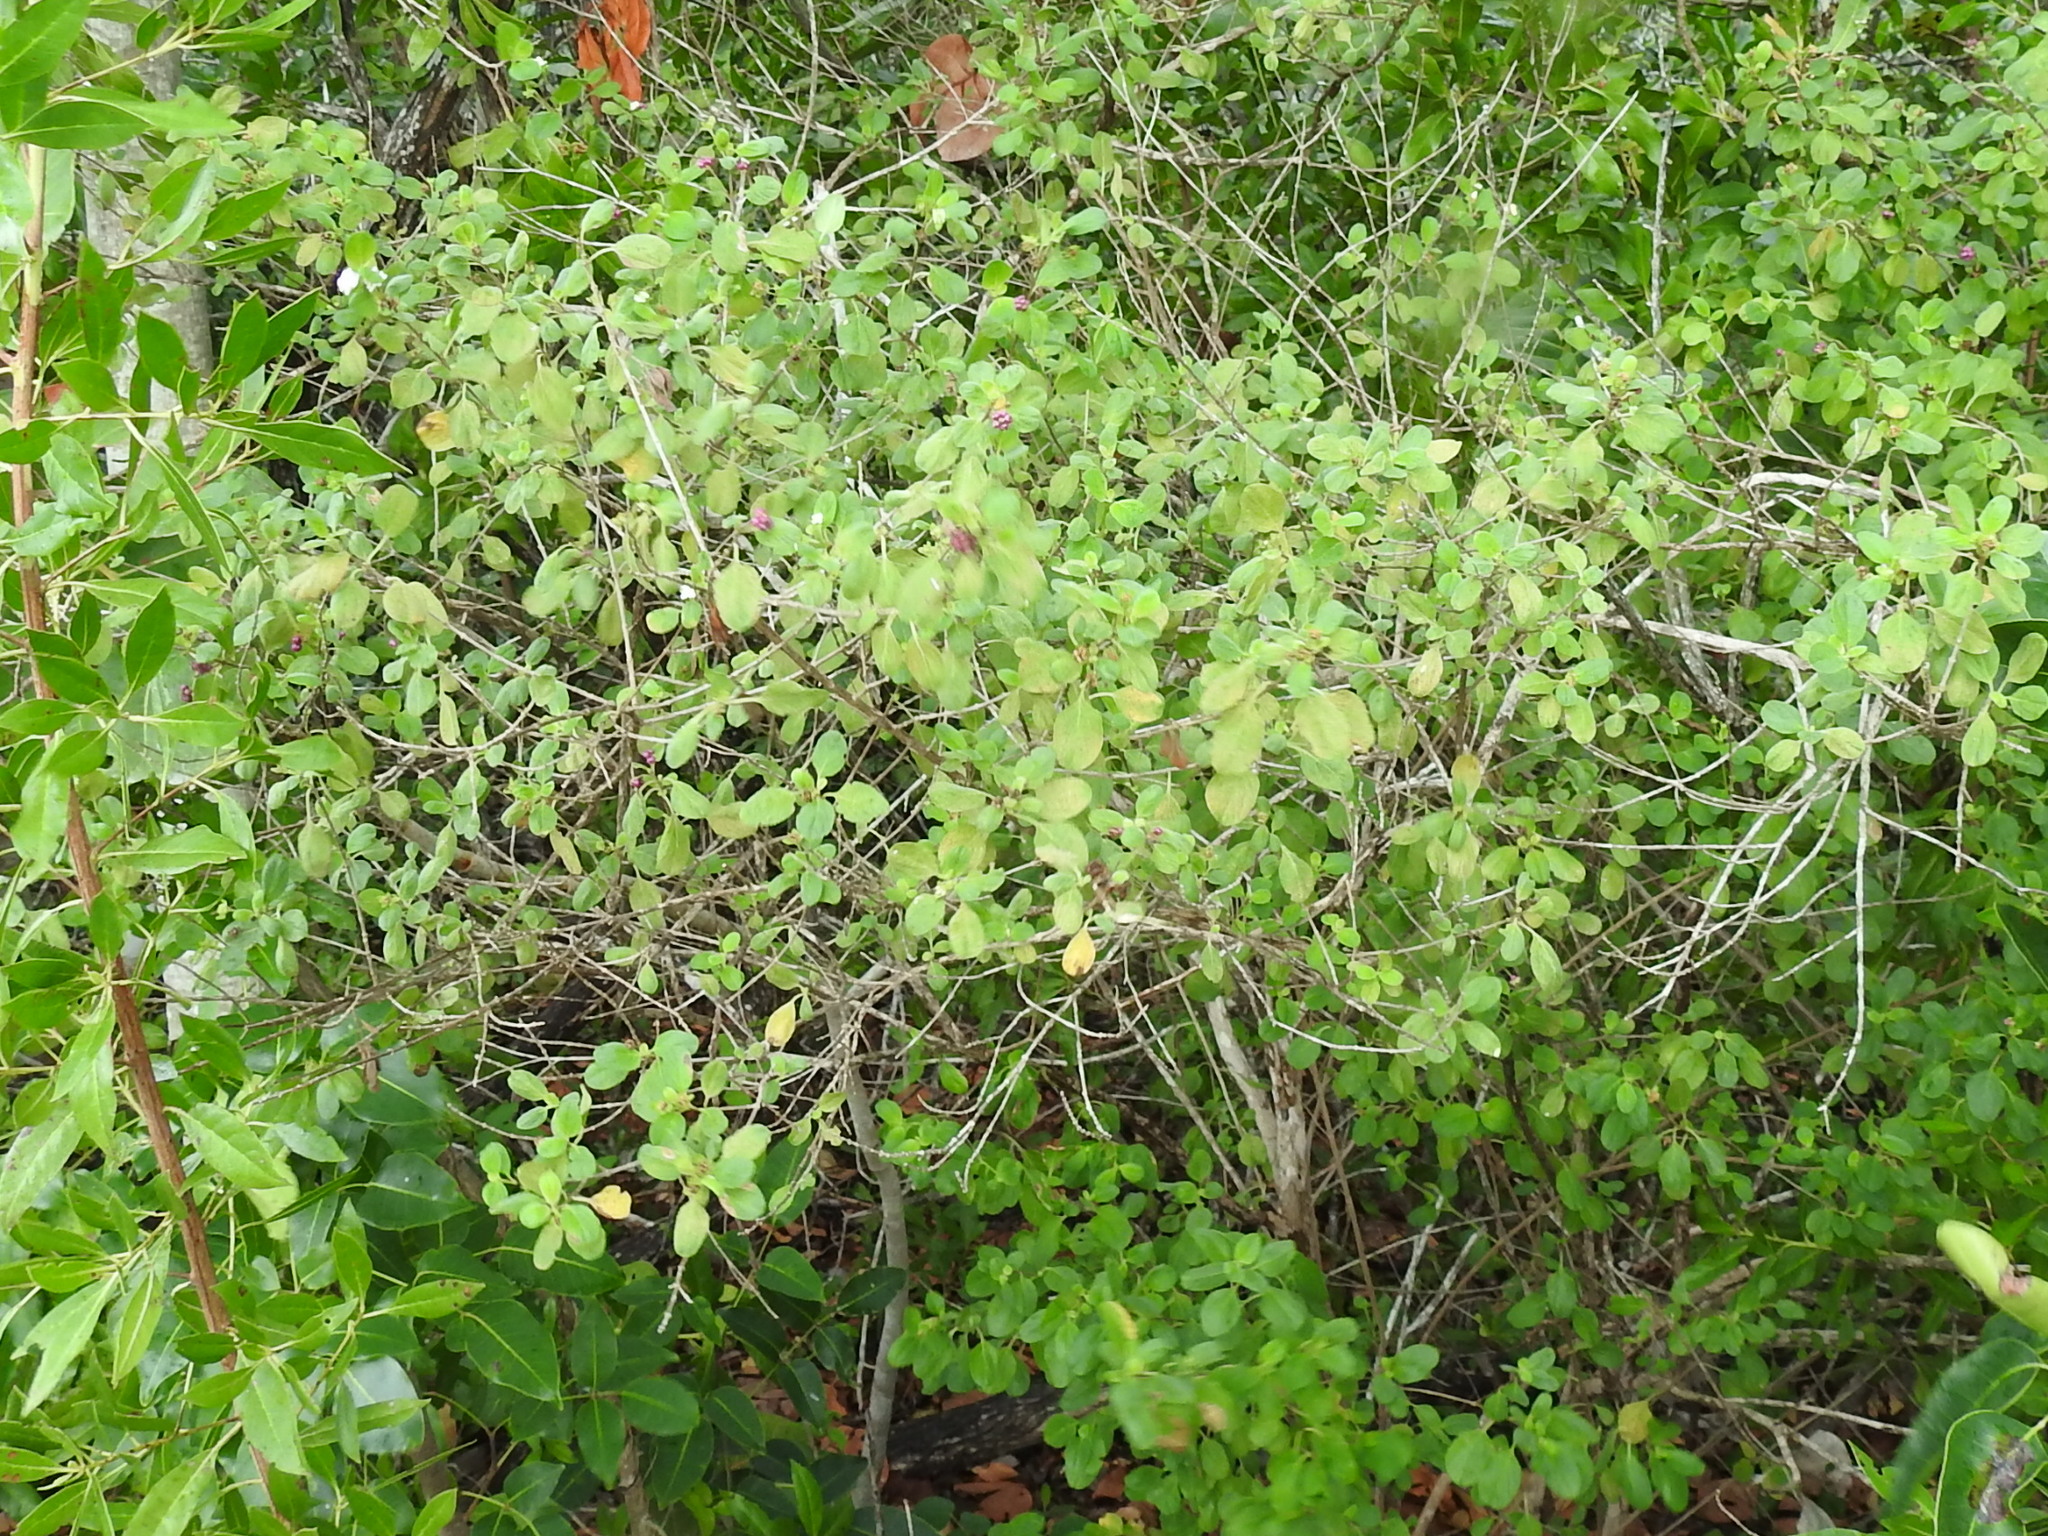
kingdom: Plantae
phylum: Tracheophyta
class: Magnoliopsida
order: Lamiales
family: Verbenaceae
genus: Lantana
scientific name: Lantana involucrata
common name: Black sage
